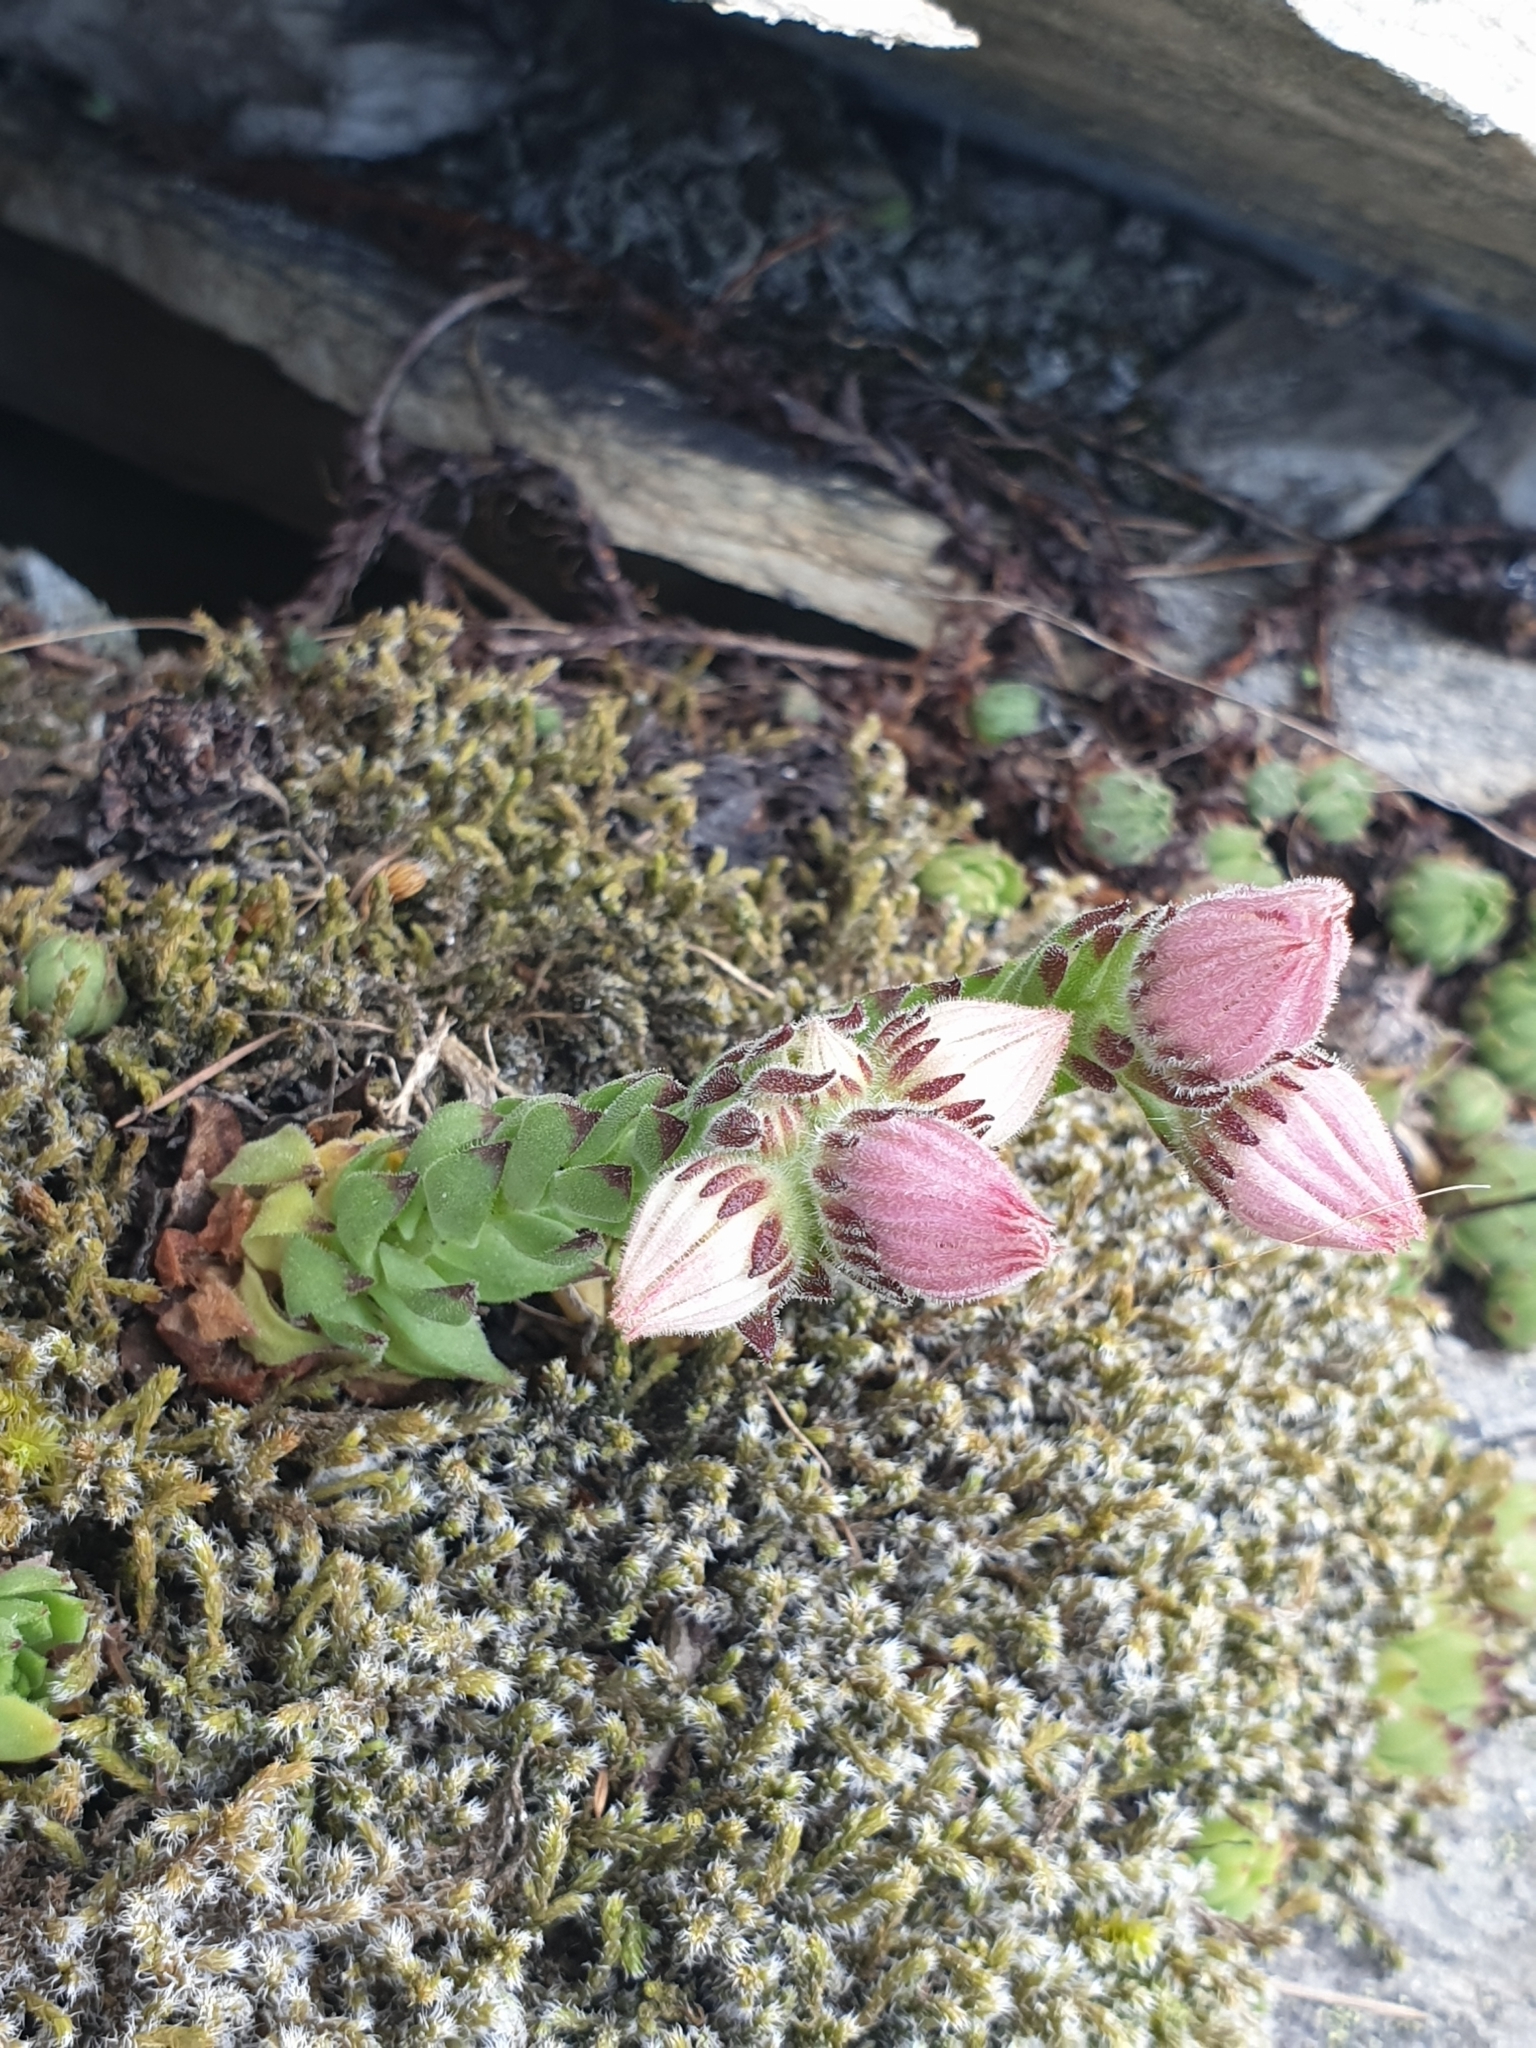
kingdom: Plantae
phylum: Tracheophyta
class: Magnoliopsida
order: Saxifragales
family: Crassulaceae
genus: Sempervivum
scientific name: Sempervivum montanum
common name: Mountain house-leek
